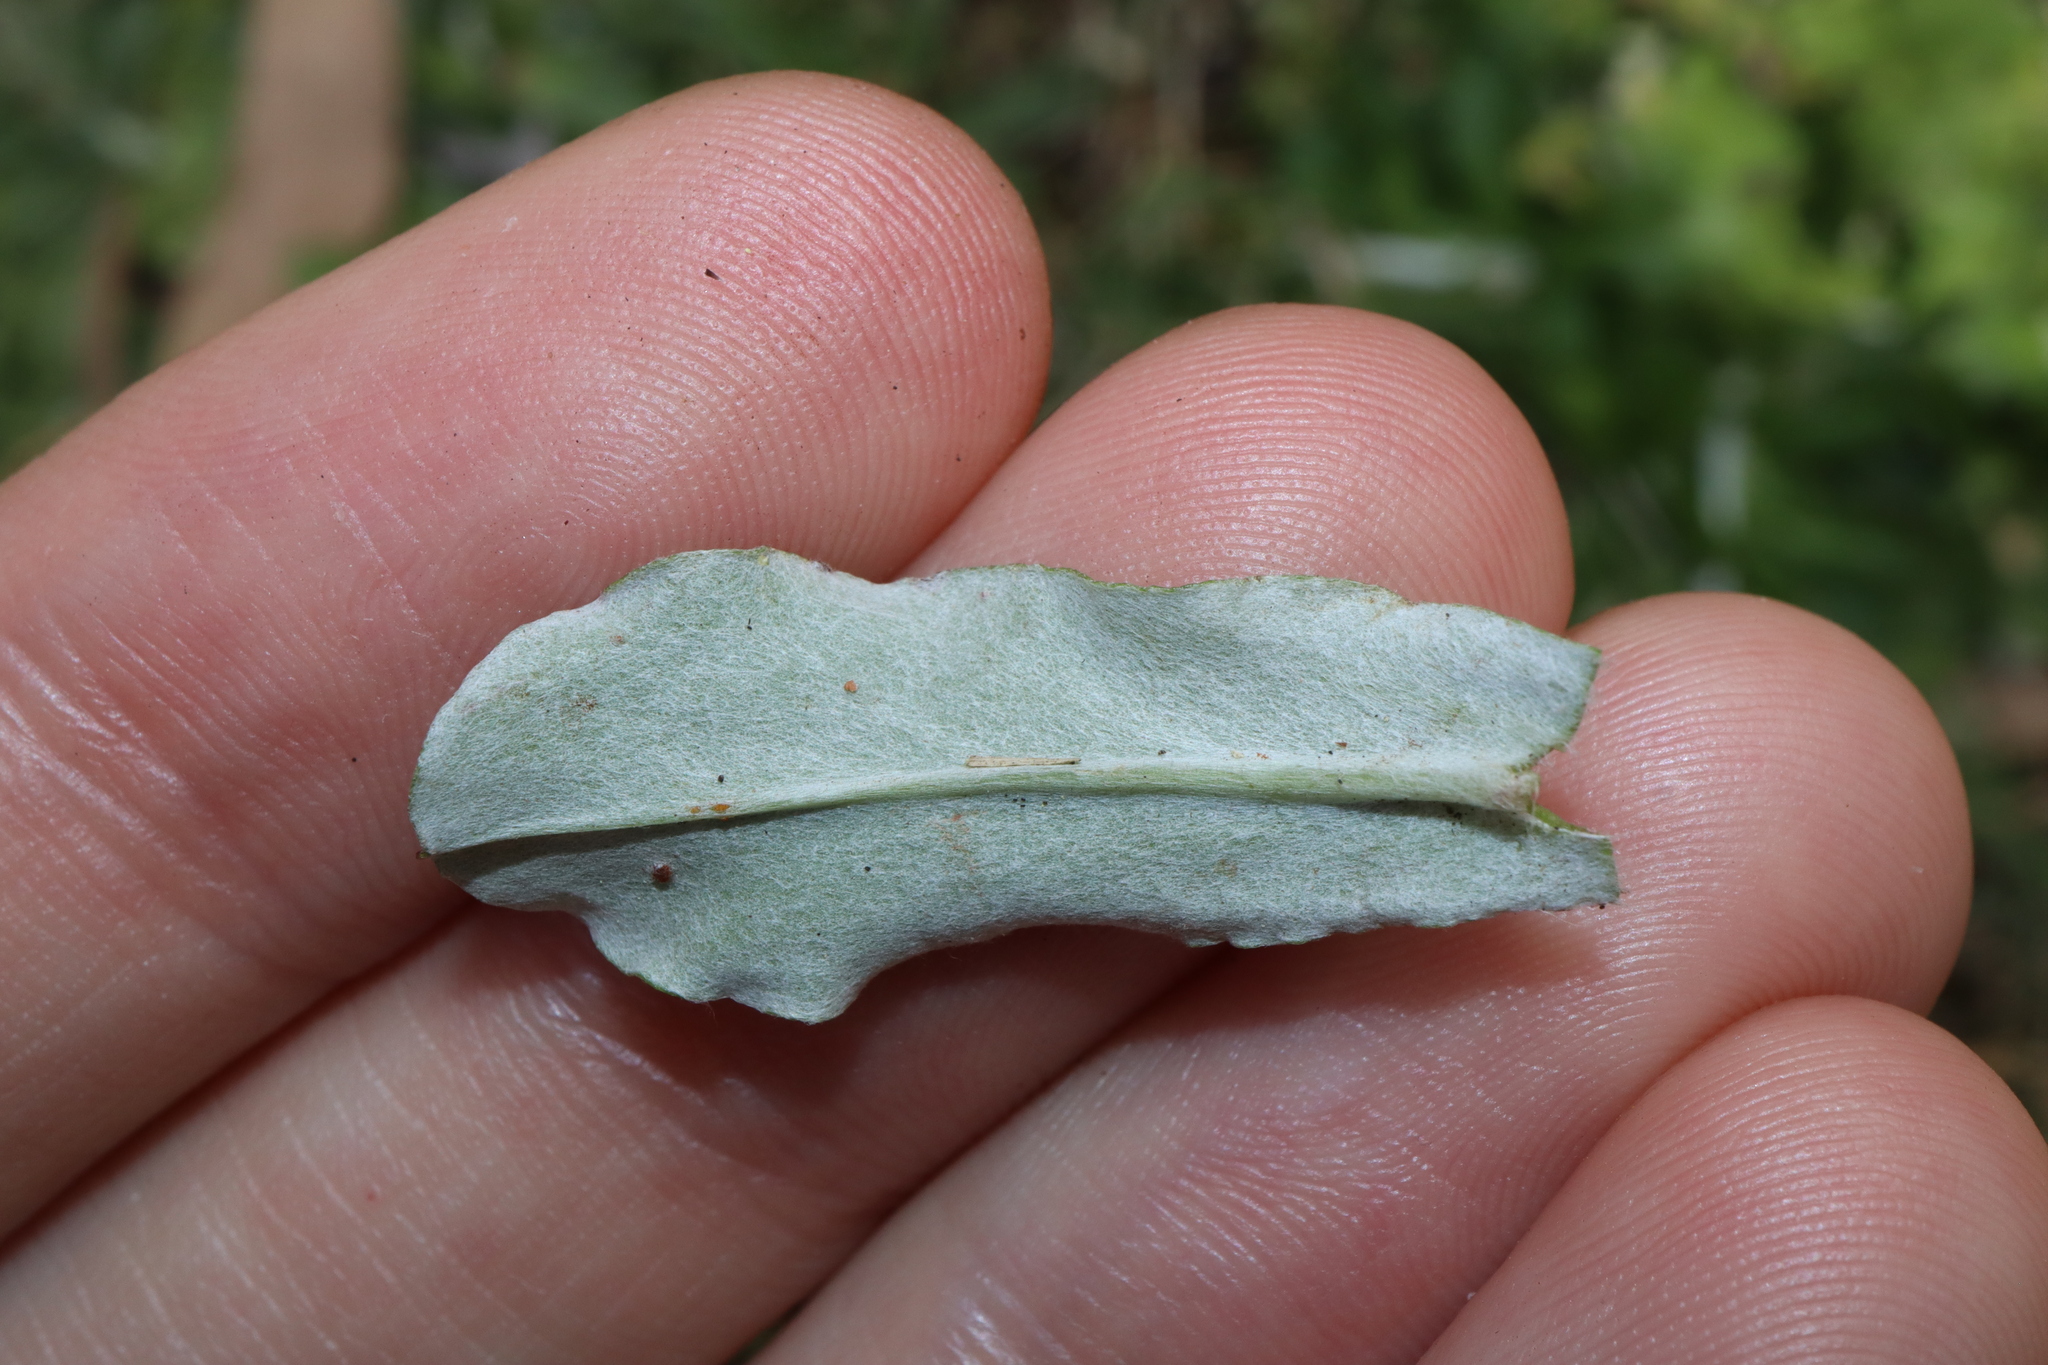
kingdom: Plantae
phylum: Tracheophyta
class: Magnoliopsida
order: Asterales
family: Asteraceae
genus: Gamochaeta
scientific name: Gamochaeta impatiens
